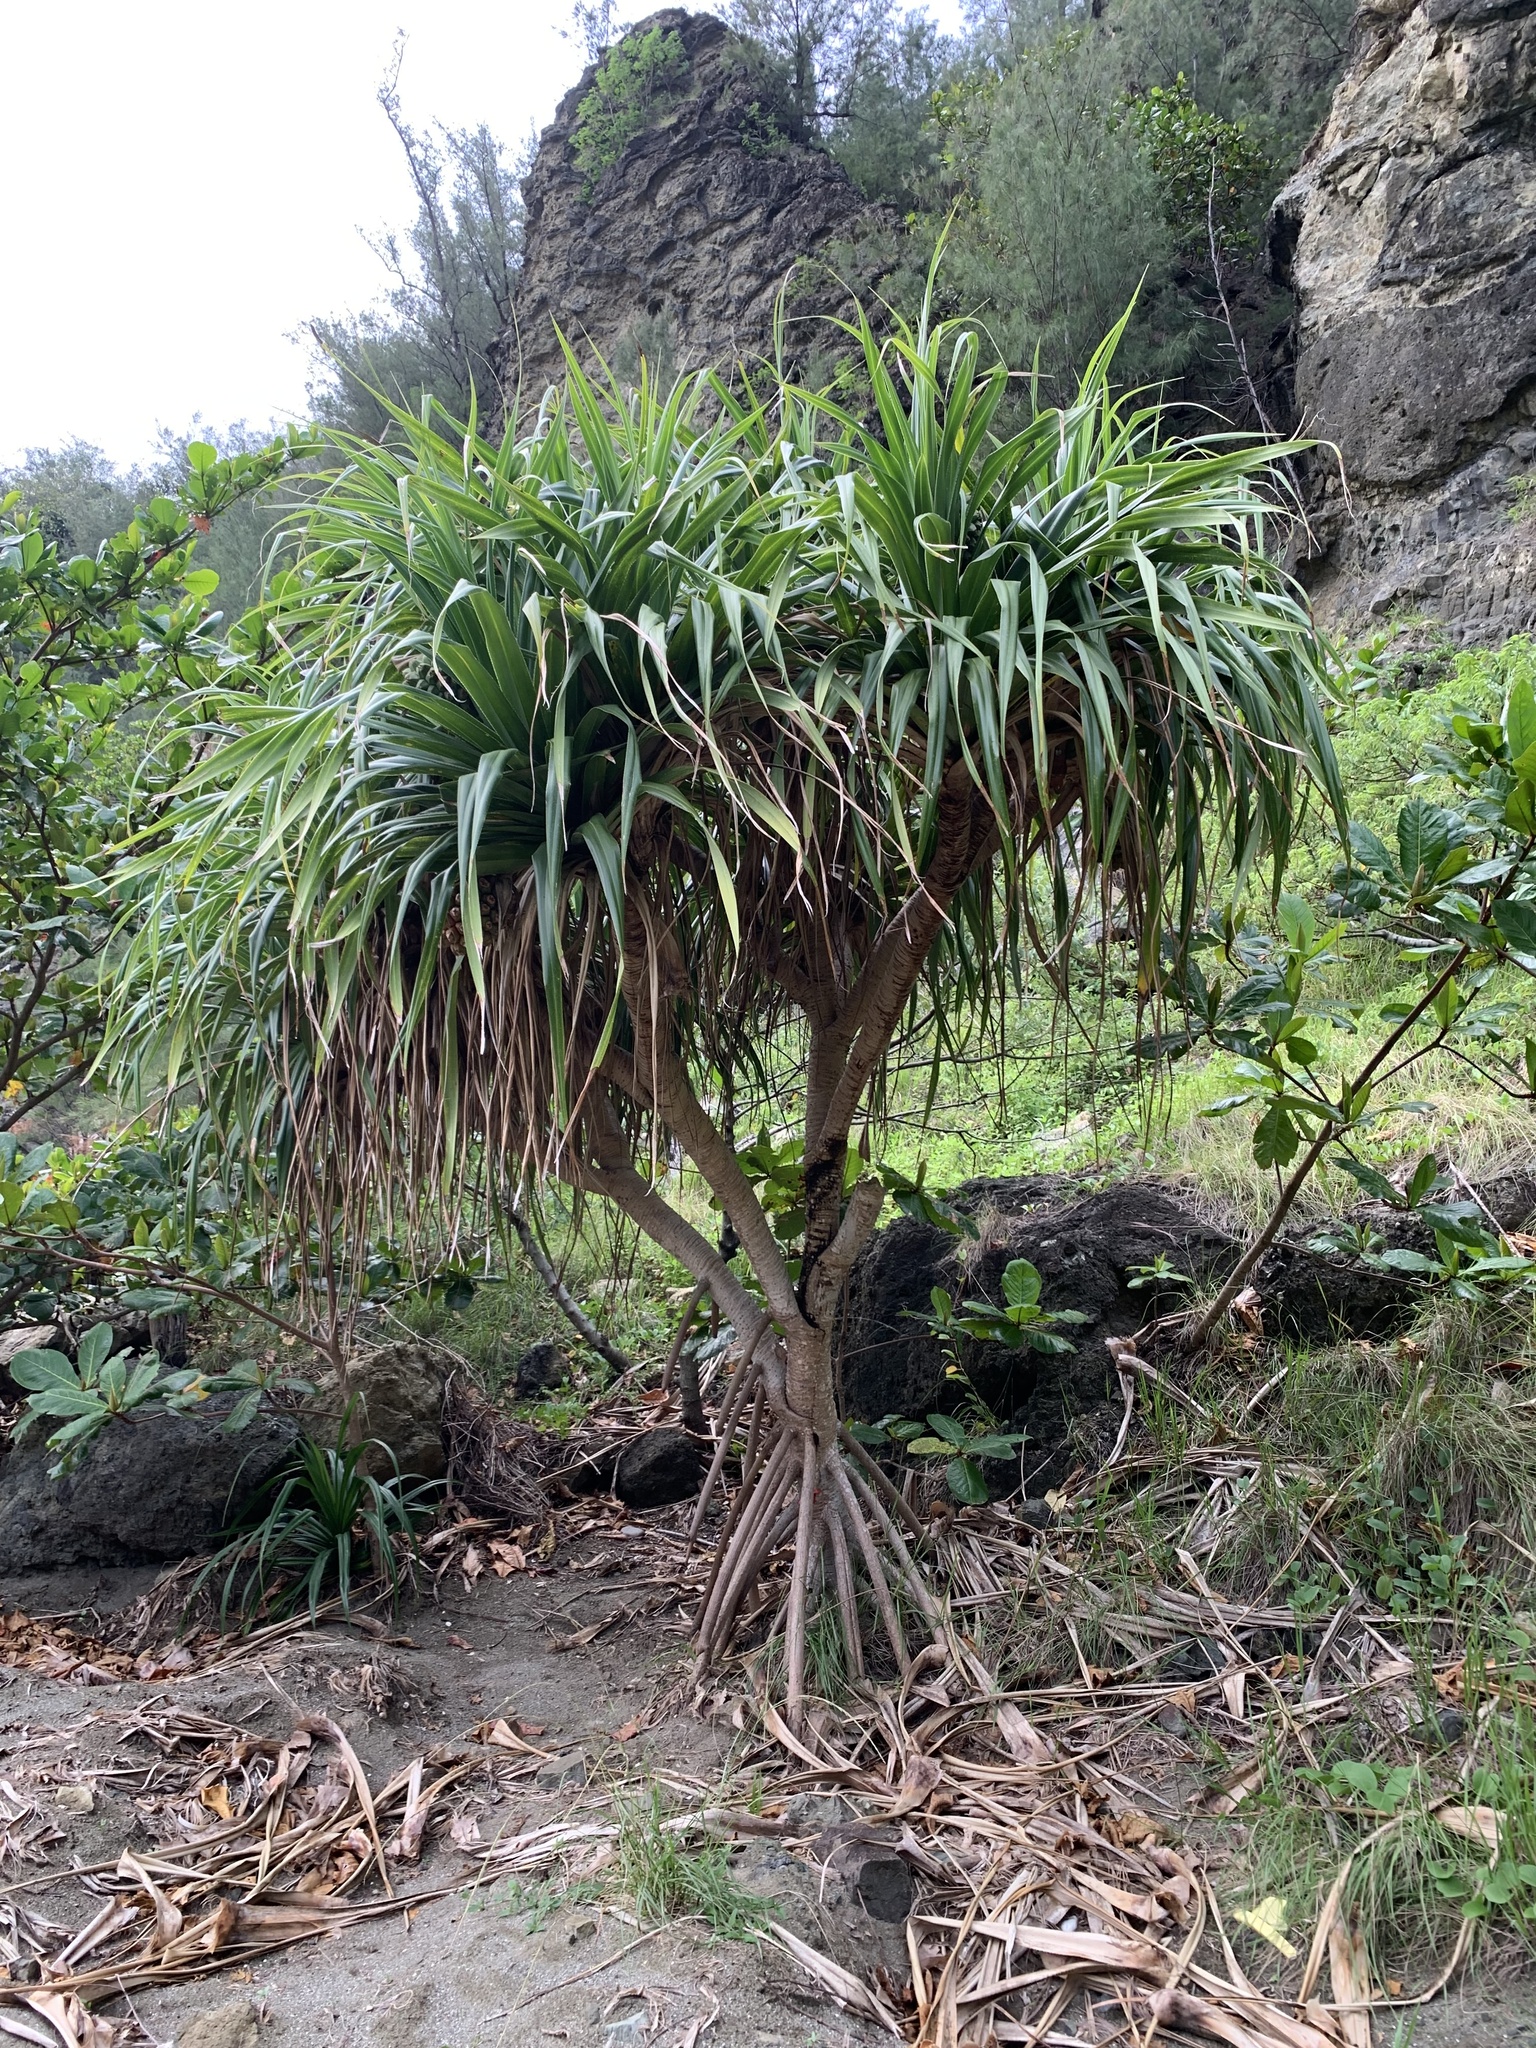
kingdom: Plantae
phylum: Tracheophyta
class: Liliopsida
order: Pandanales
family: Pandanaceae
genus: Pandanus
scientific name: Pandanus boninensis
